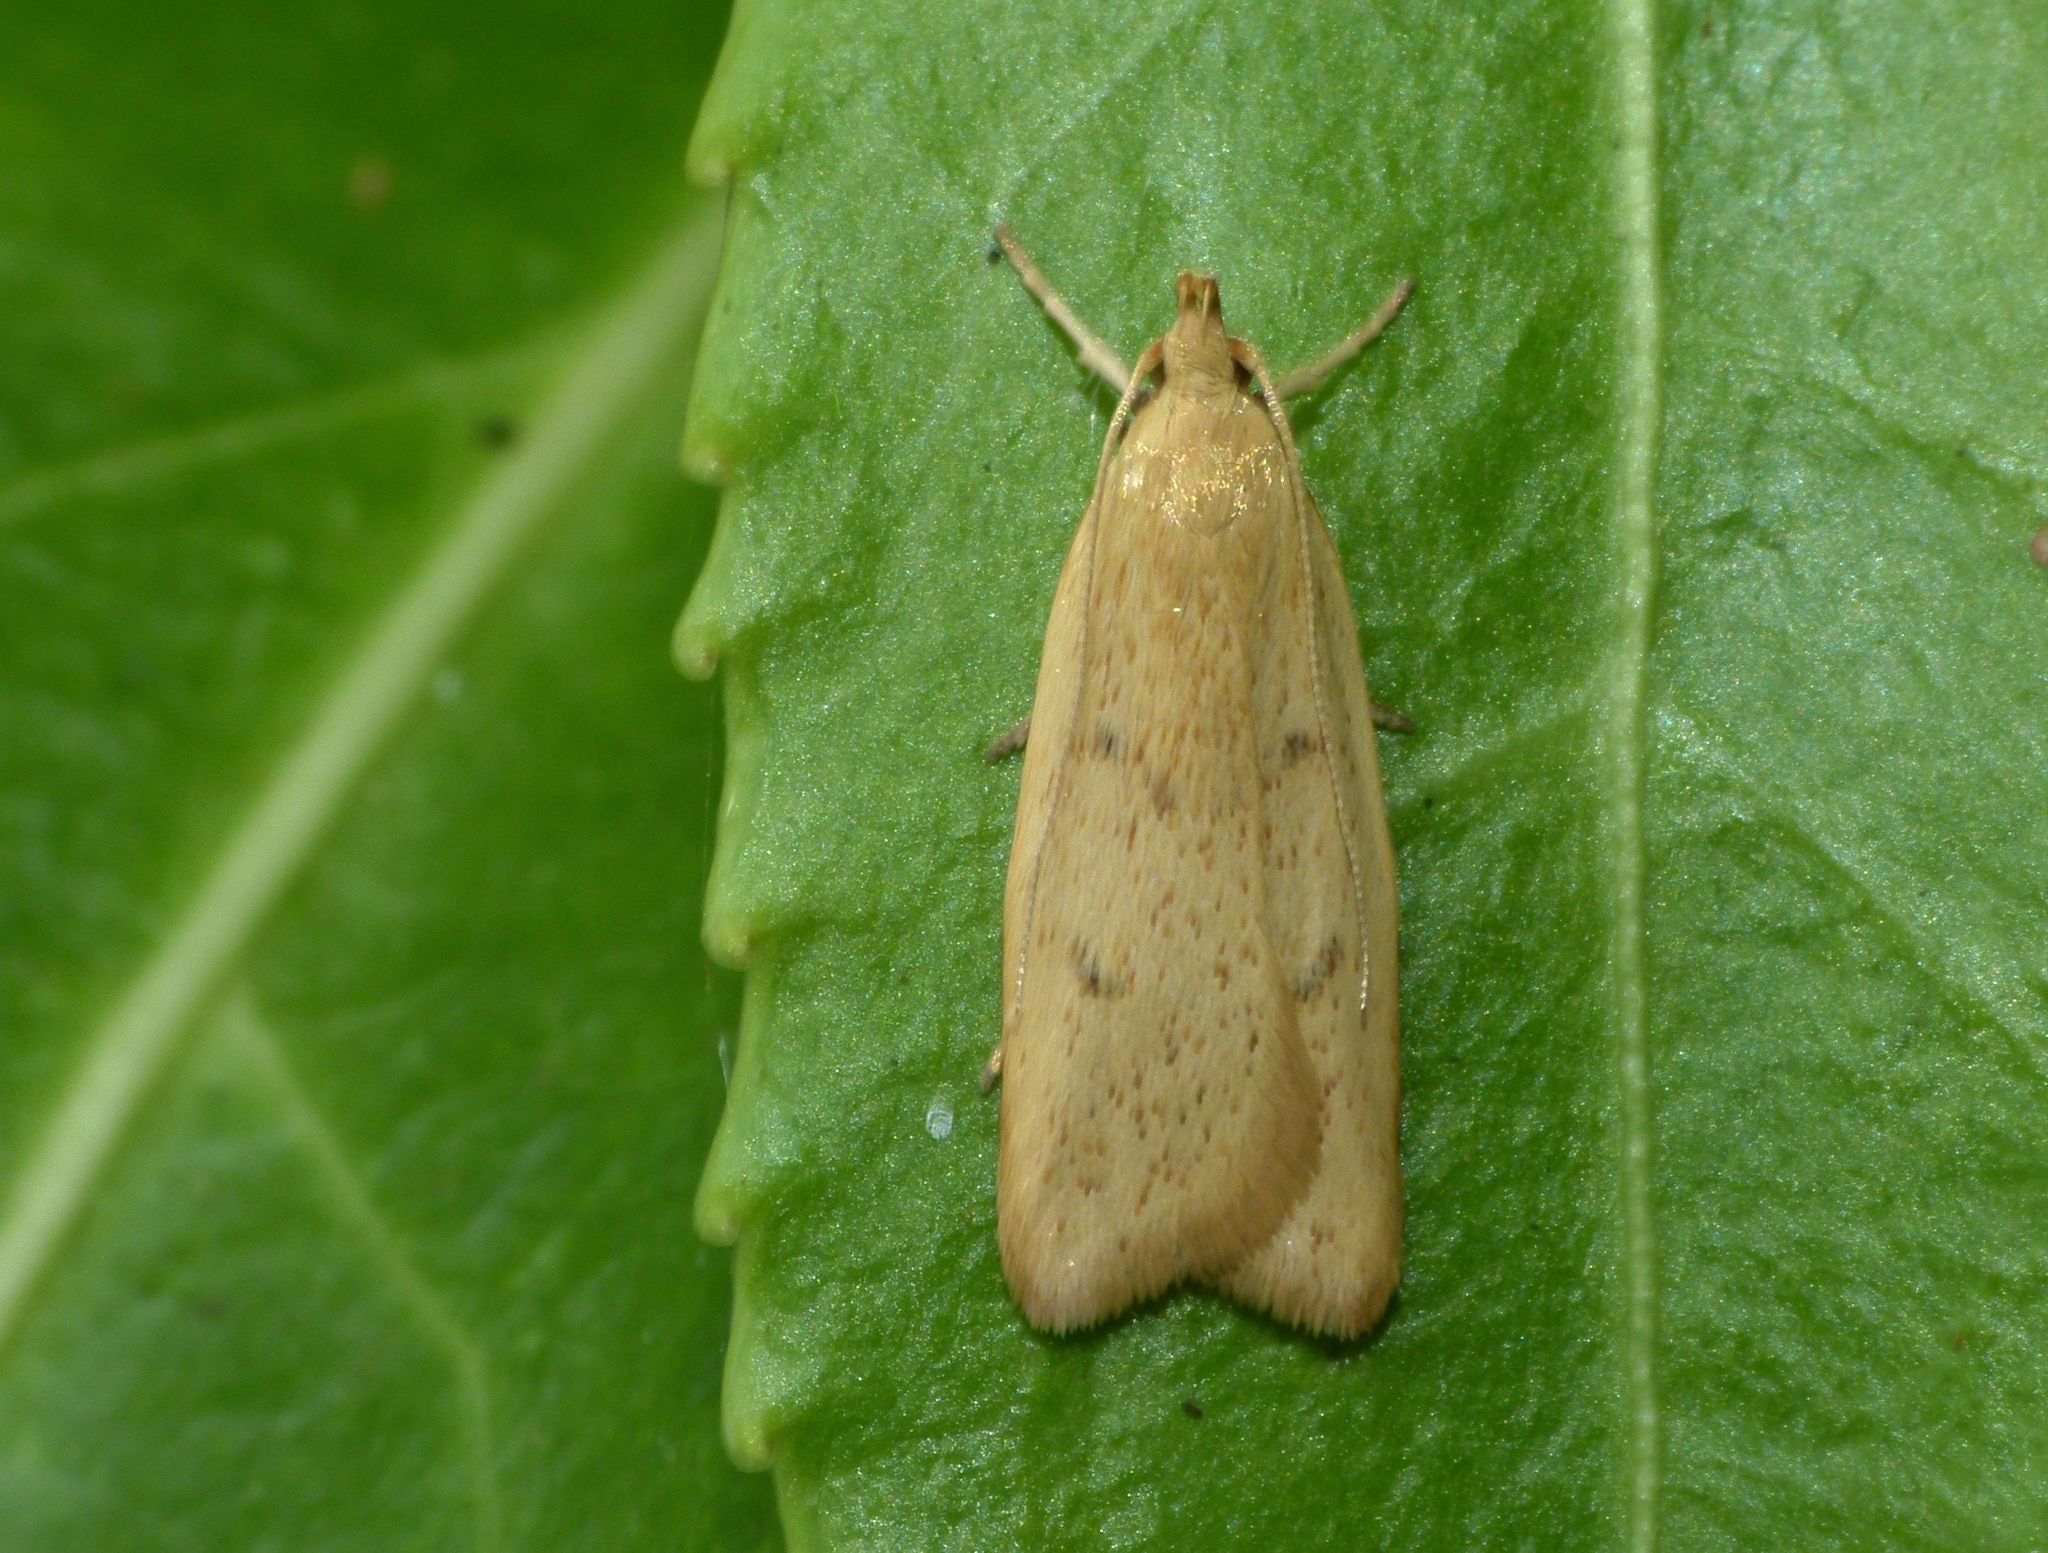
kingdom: Animalia
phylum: Arthropoda
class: Insecta
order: Lepidoptera
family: Oecophoridae
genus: Gymnobathra
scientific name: Gymnobathra sarcoxantha
